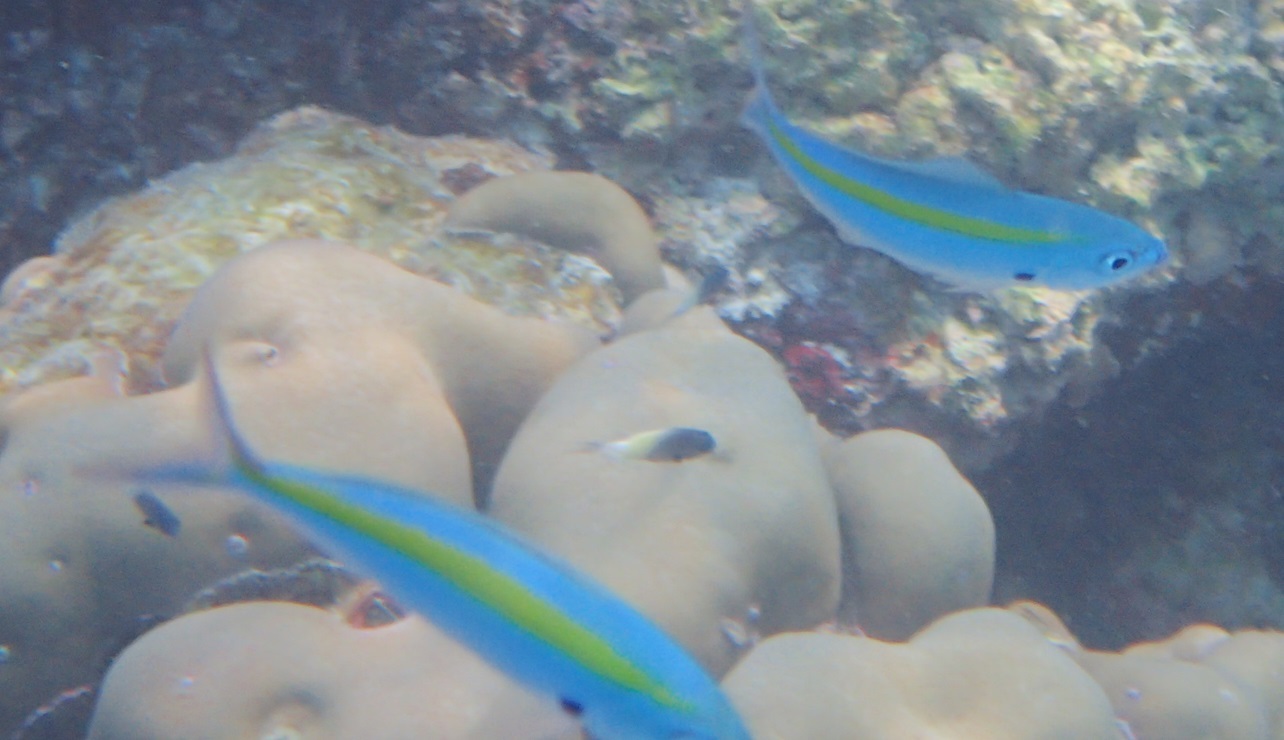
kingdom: Animalia
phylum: Chordata
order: Perciformes
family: Caesionidae
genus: Caesio
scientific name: Caesio caerulaurea
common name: Blue and gold fusilier
